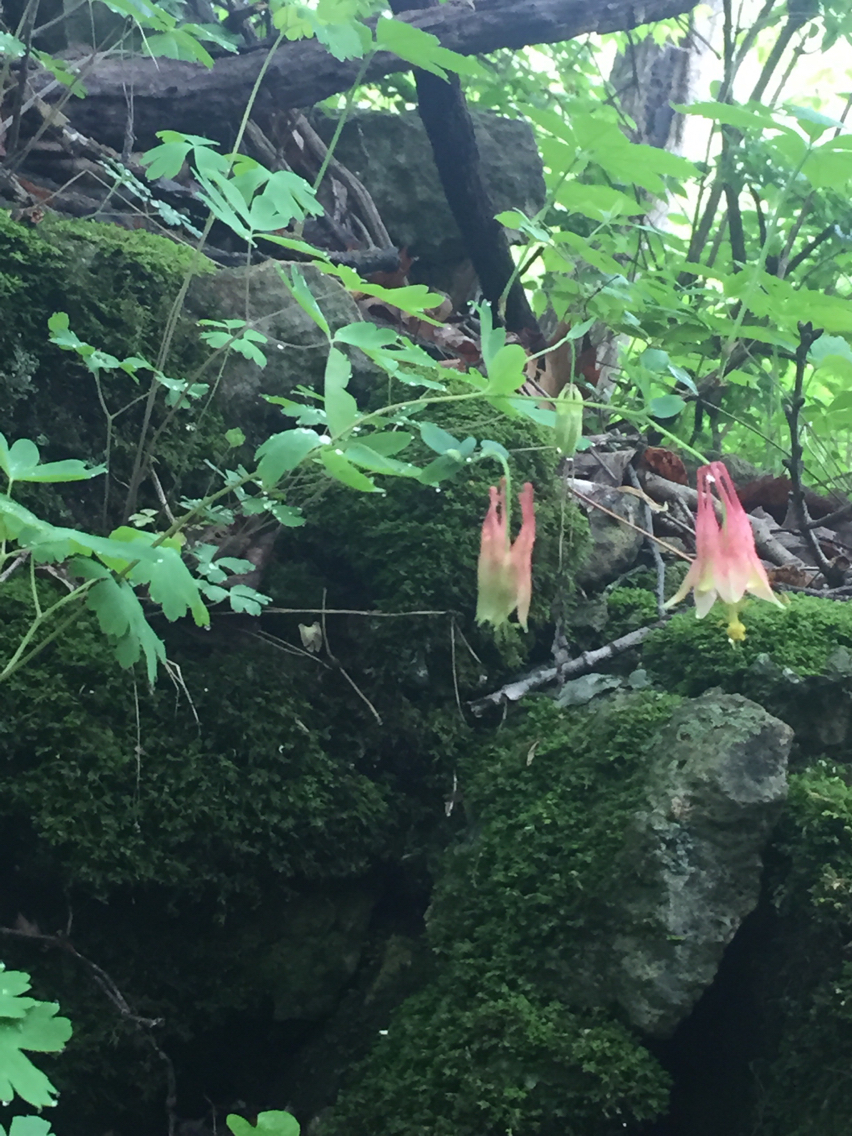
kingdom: Plantae
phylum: Tracheophyta
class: Magnoliopsida
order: Ranunculales
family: Ranunculaceae
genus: Aquilegia
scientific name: Aquilegia canadensis
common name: American columbine
